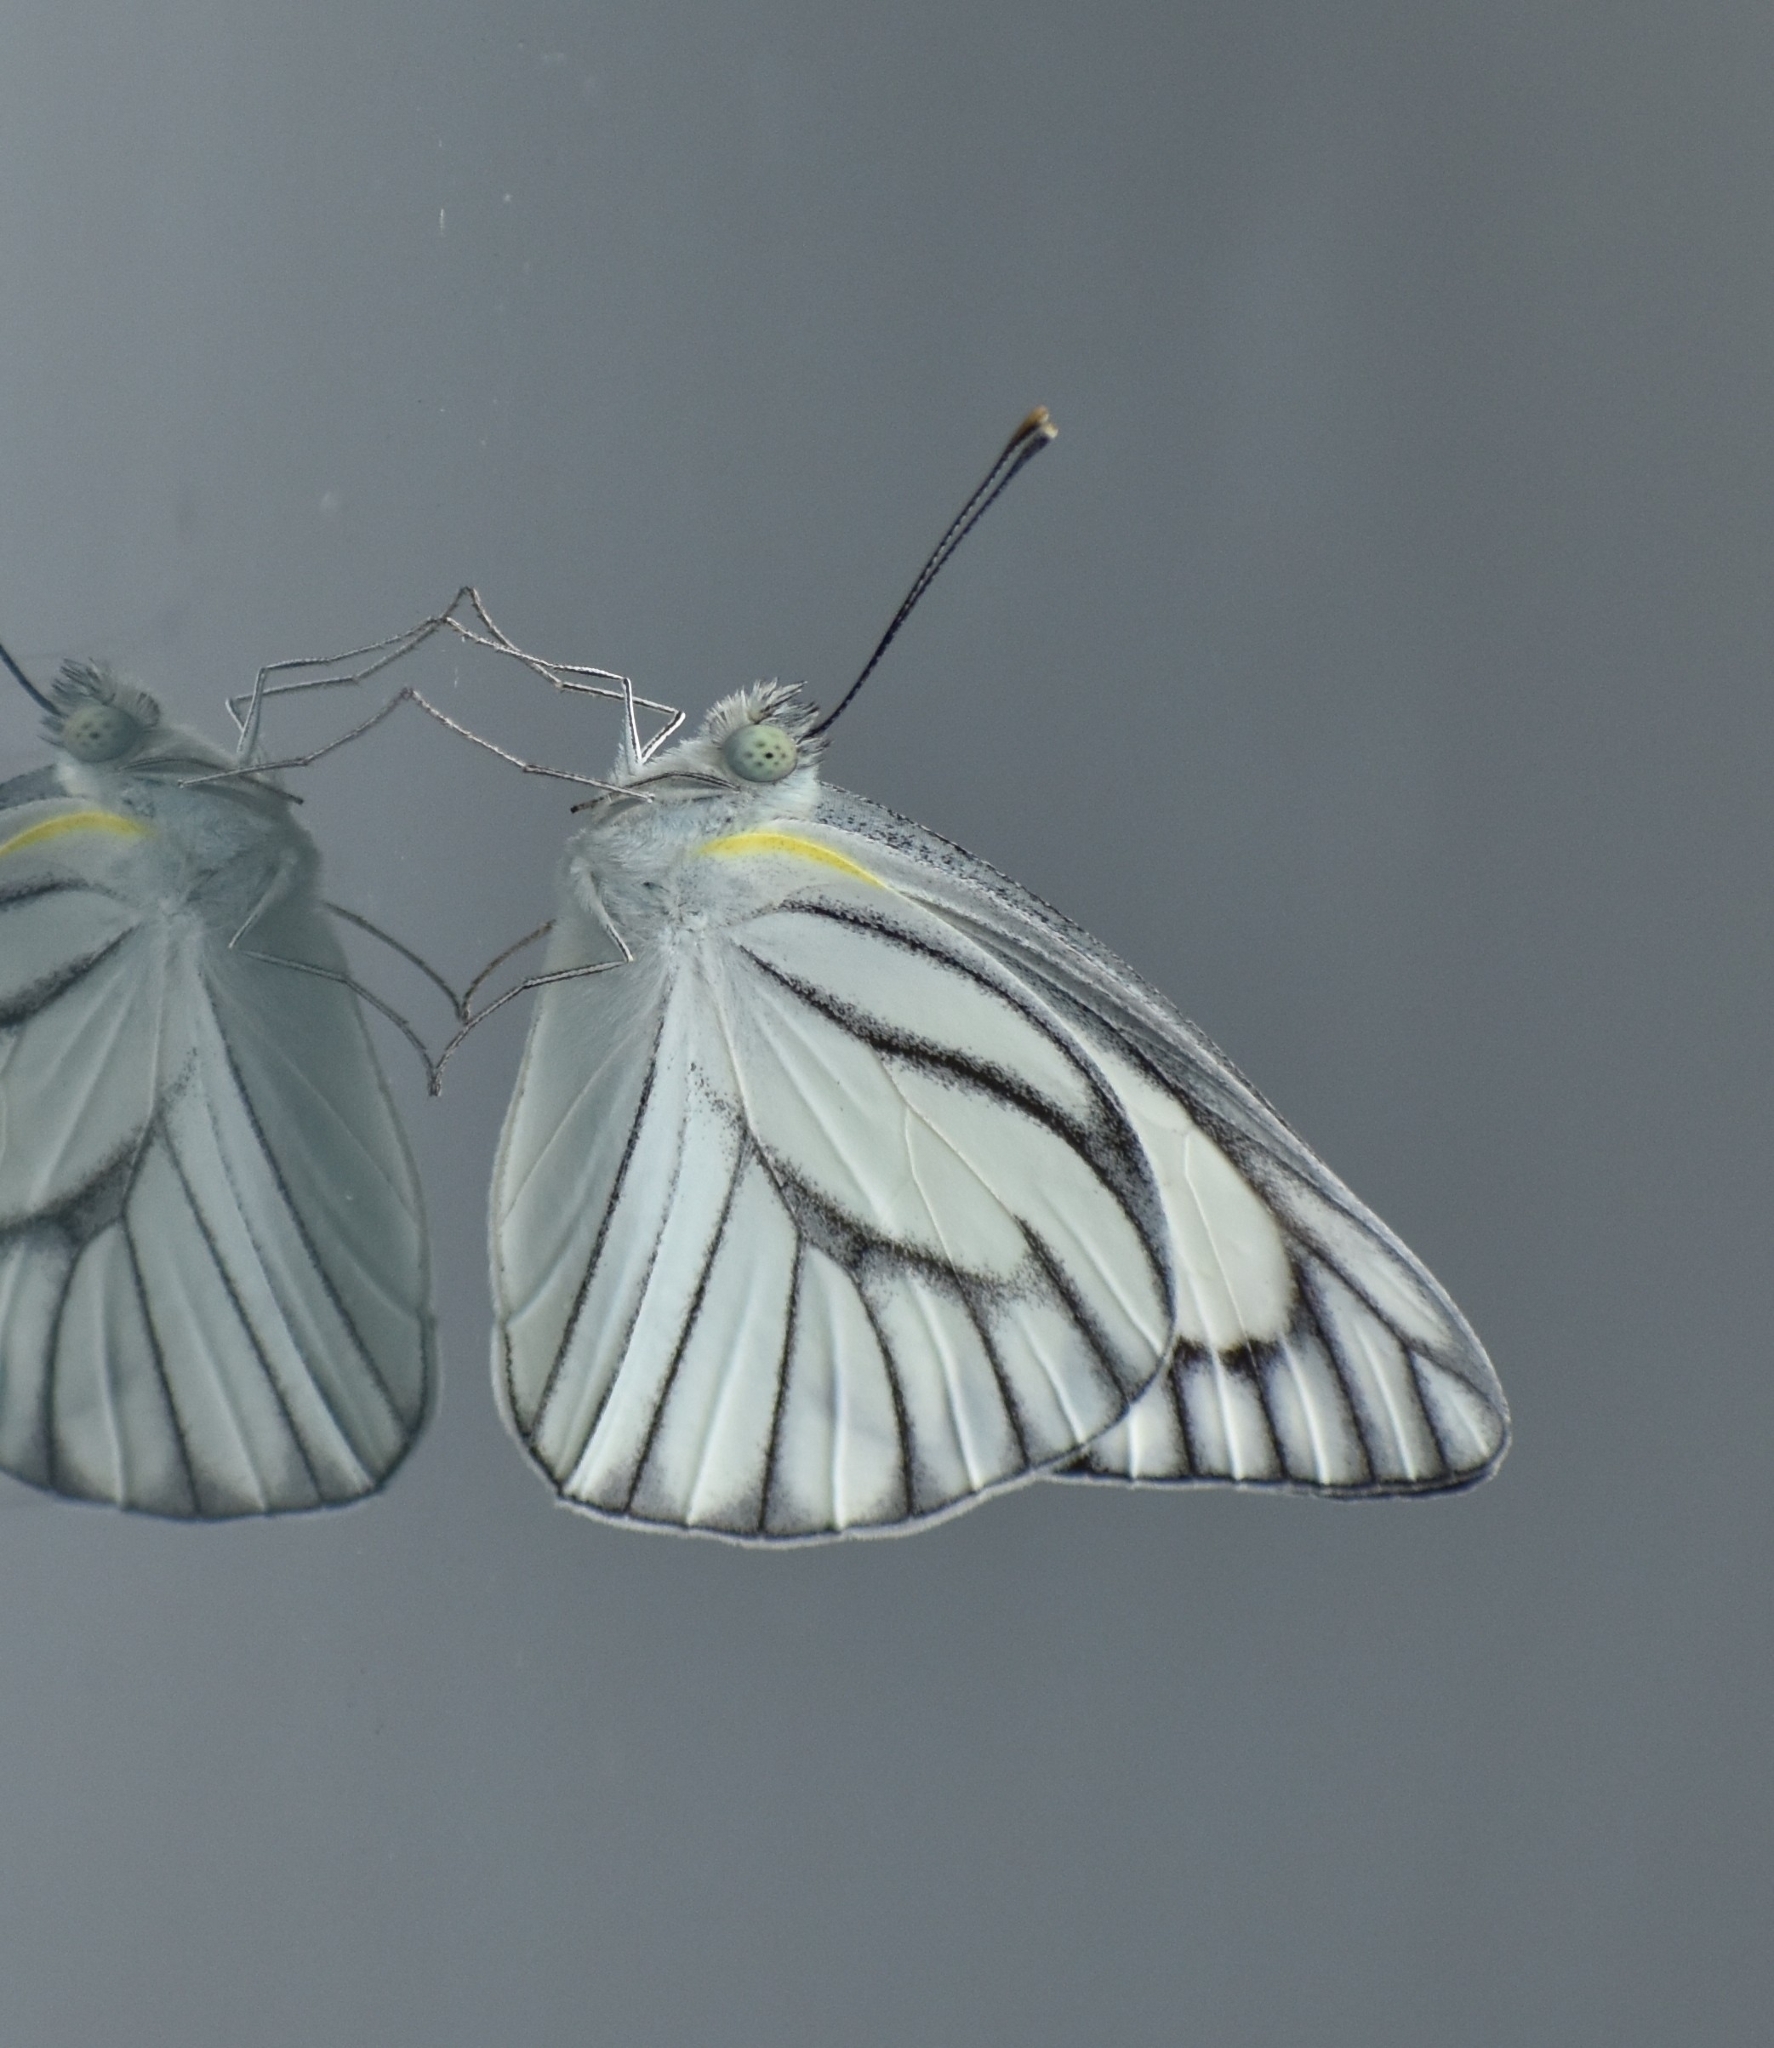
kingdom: Animalia
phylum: Arthropoda
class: Insecta
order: Lepidoptera
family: Pieridae
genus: Appias
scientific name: Appias libythea
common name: Striped albatross
